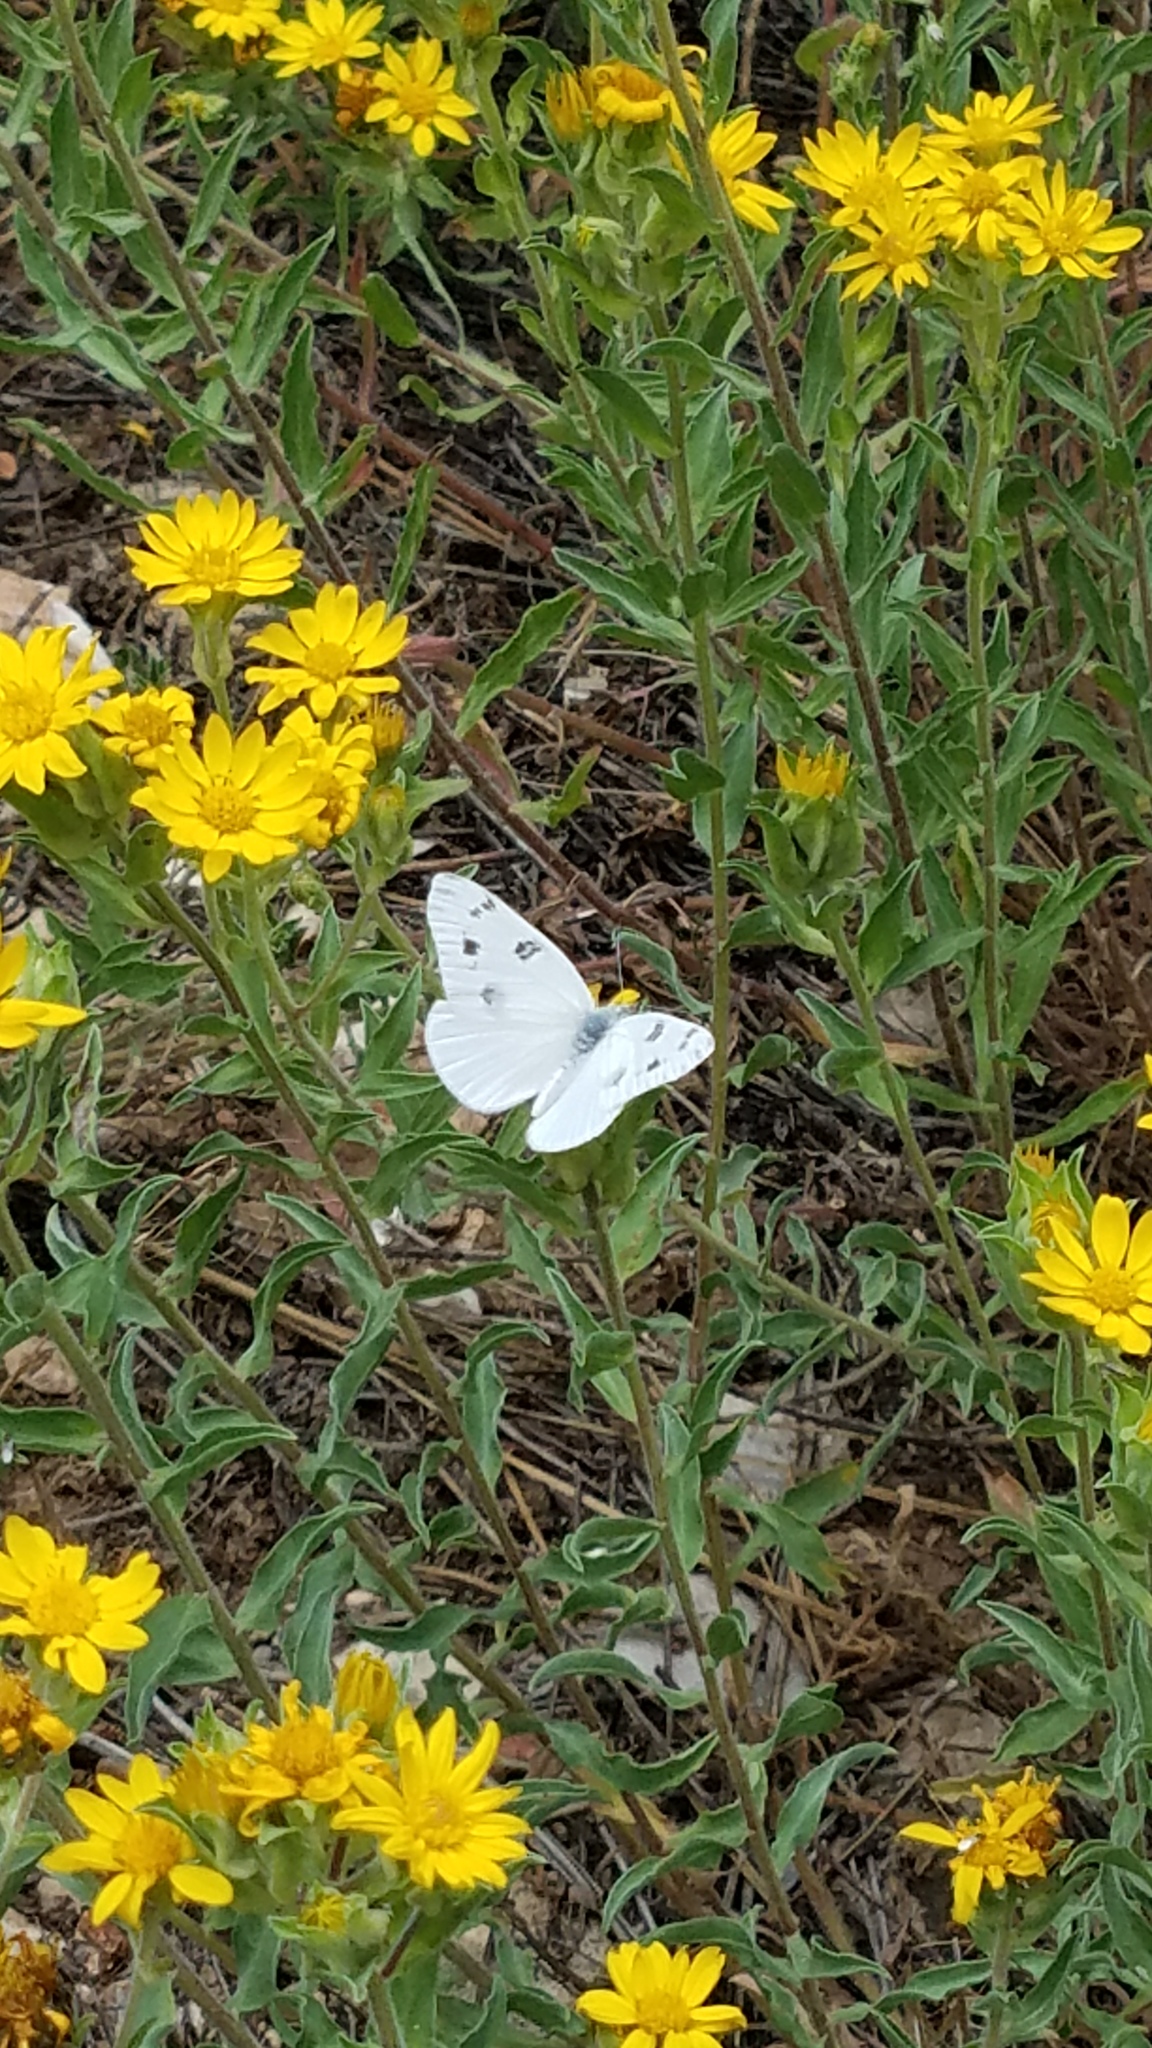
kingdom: Animalia
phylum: Arthropoda
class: Insecta
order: Lepidoptera
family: Pieridae
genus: Pontia
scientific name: Pontia protodice
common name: Checkered white
